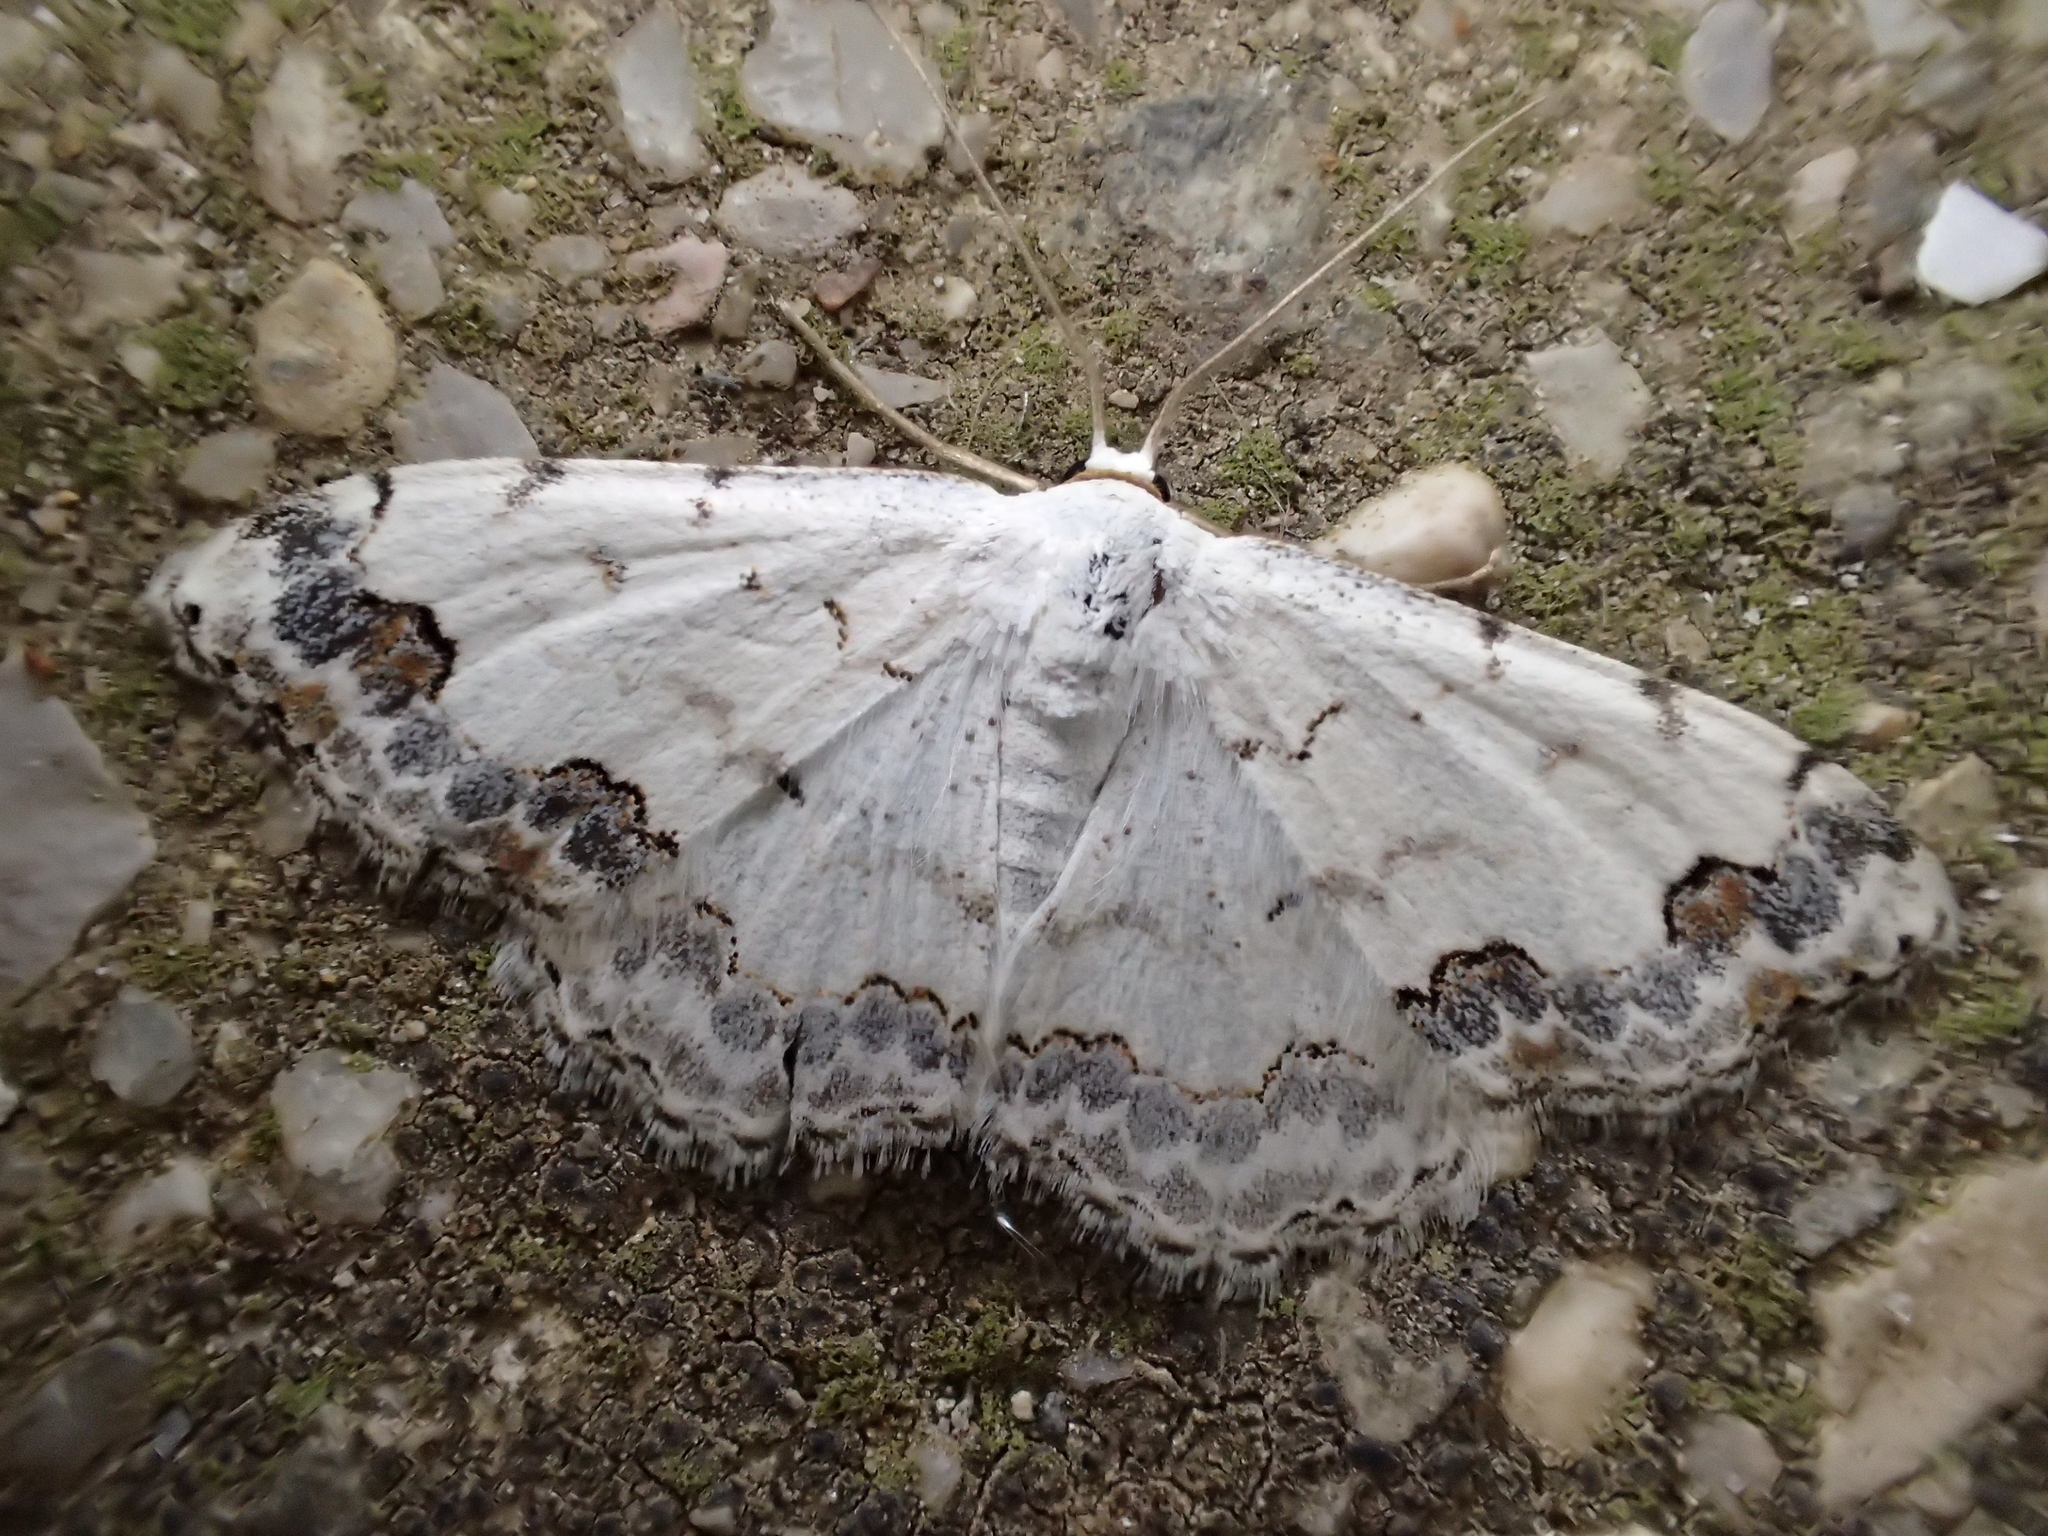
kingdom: Animalia
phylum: Arthropoda
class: Insecta
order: Lepidoptera
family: Geometridae
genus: Scopula
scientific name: Scopula decorata
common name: Middle lace border
